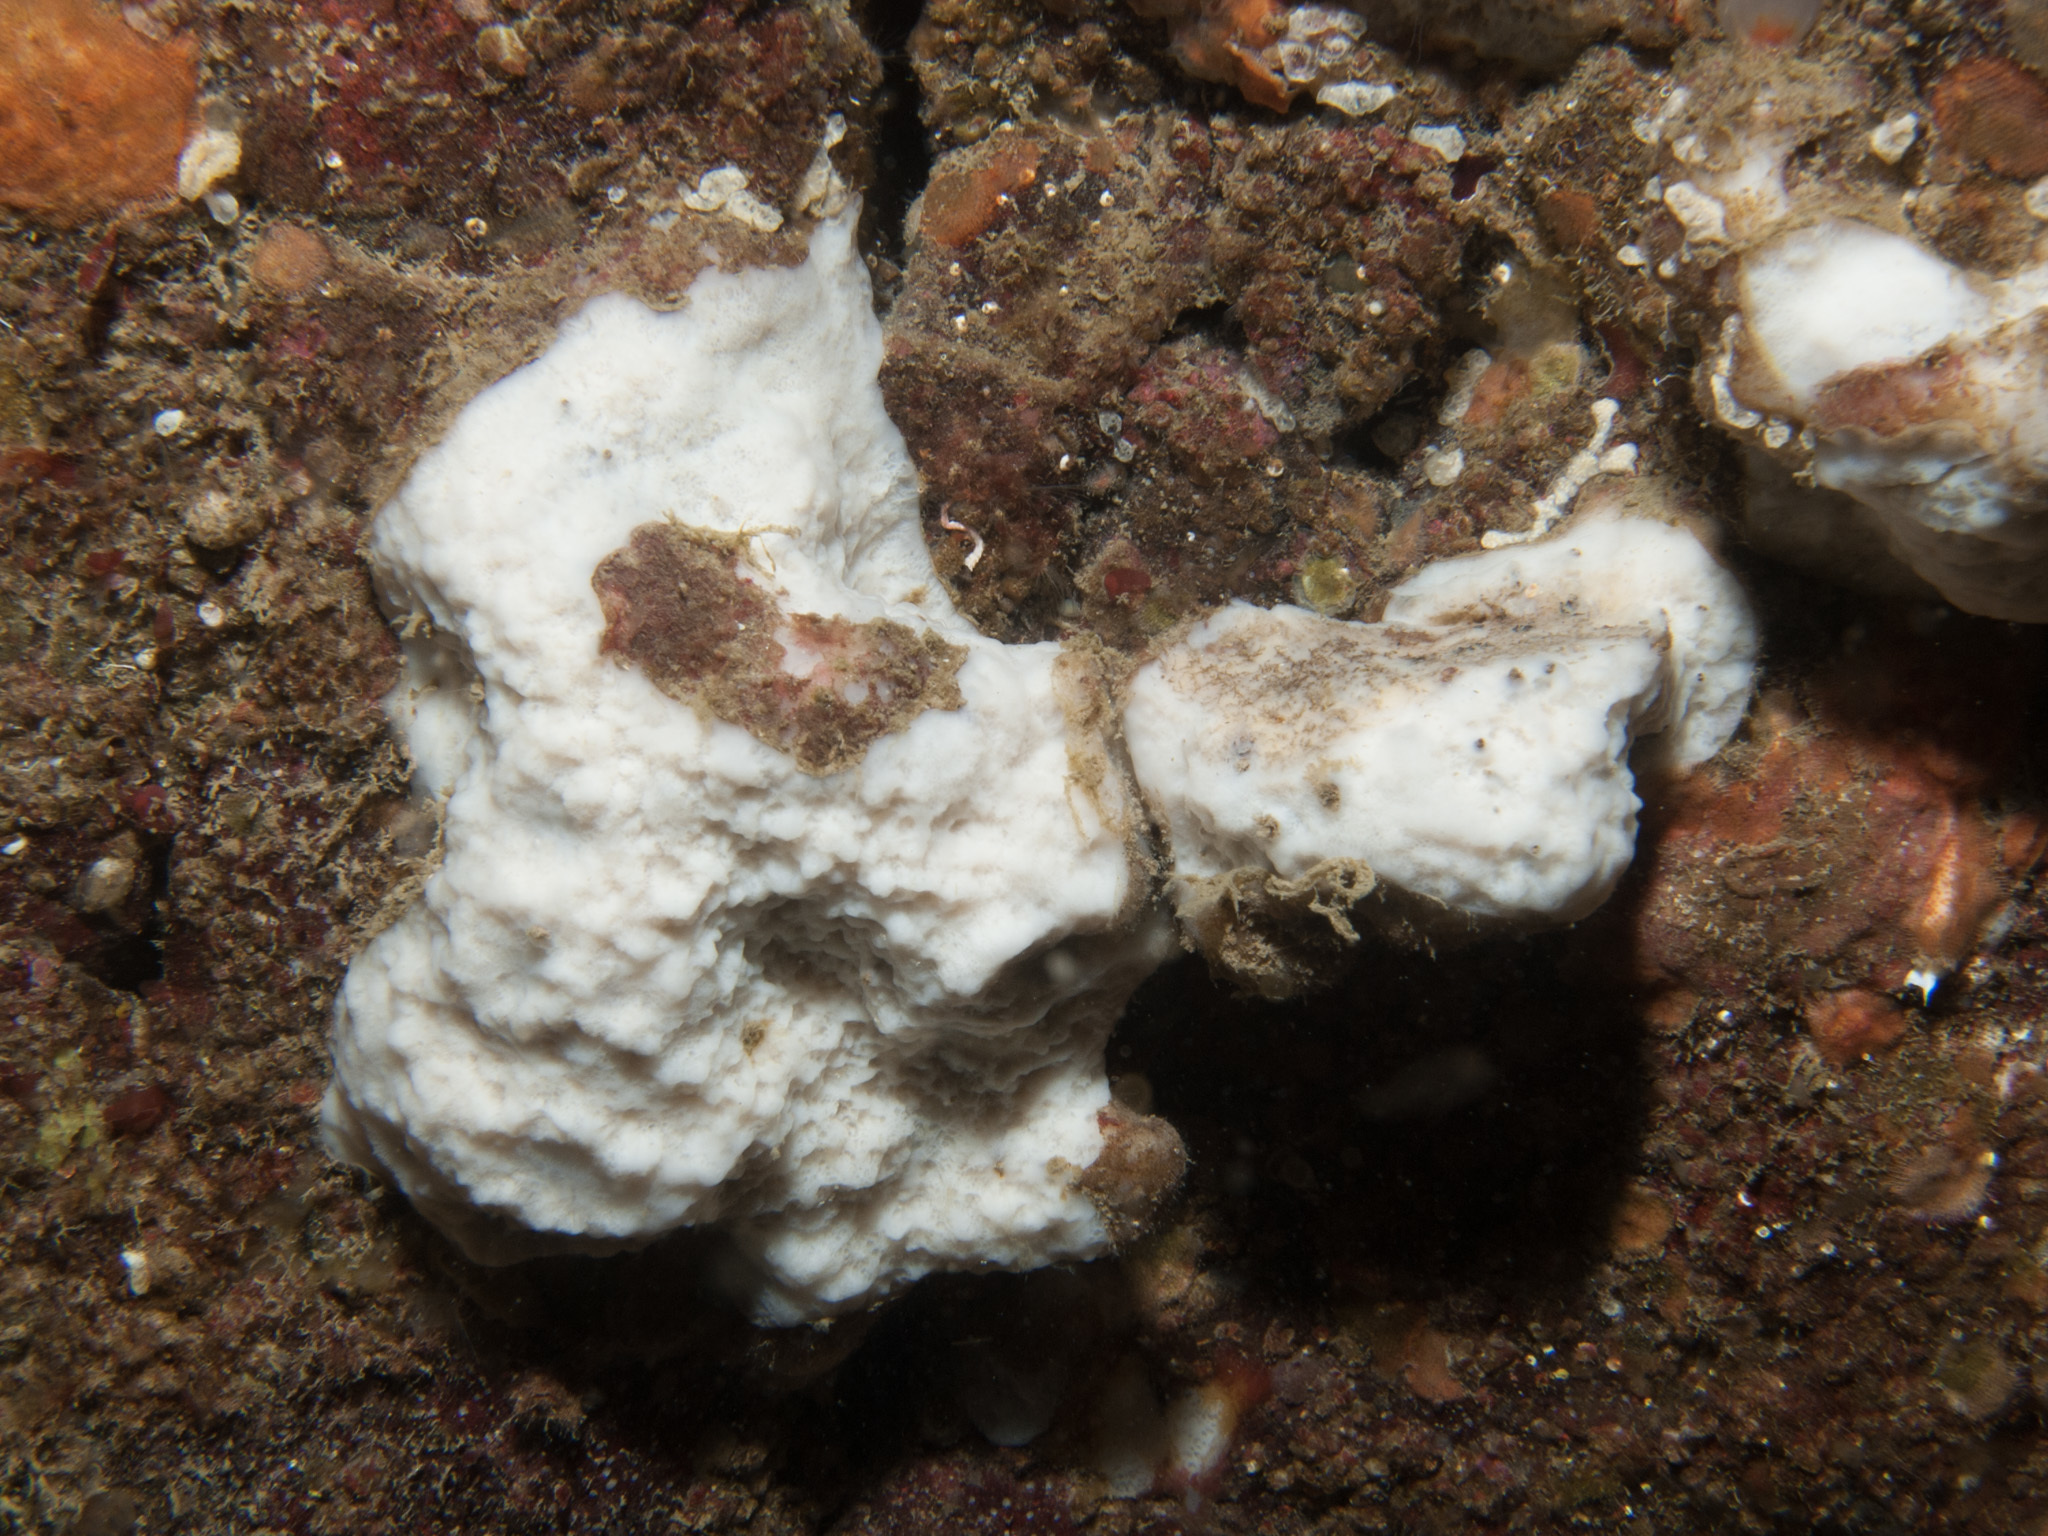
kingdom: Animalia
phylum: Porifera
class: Demospongiae
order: Chondrillida
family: Chondrillidae
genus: Thymosia
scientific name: Thymosia guernei
